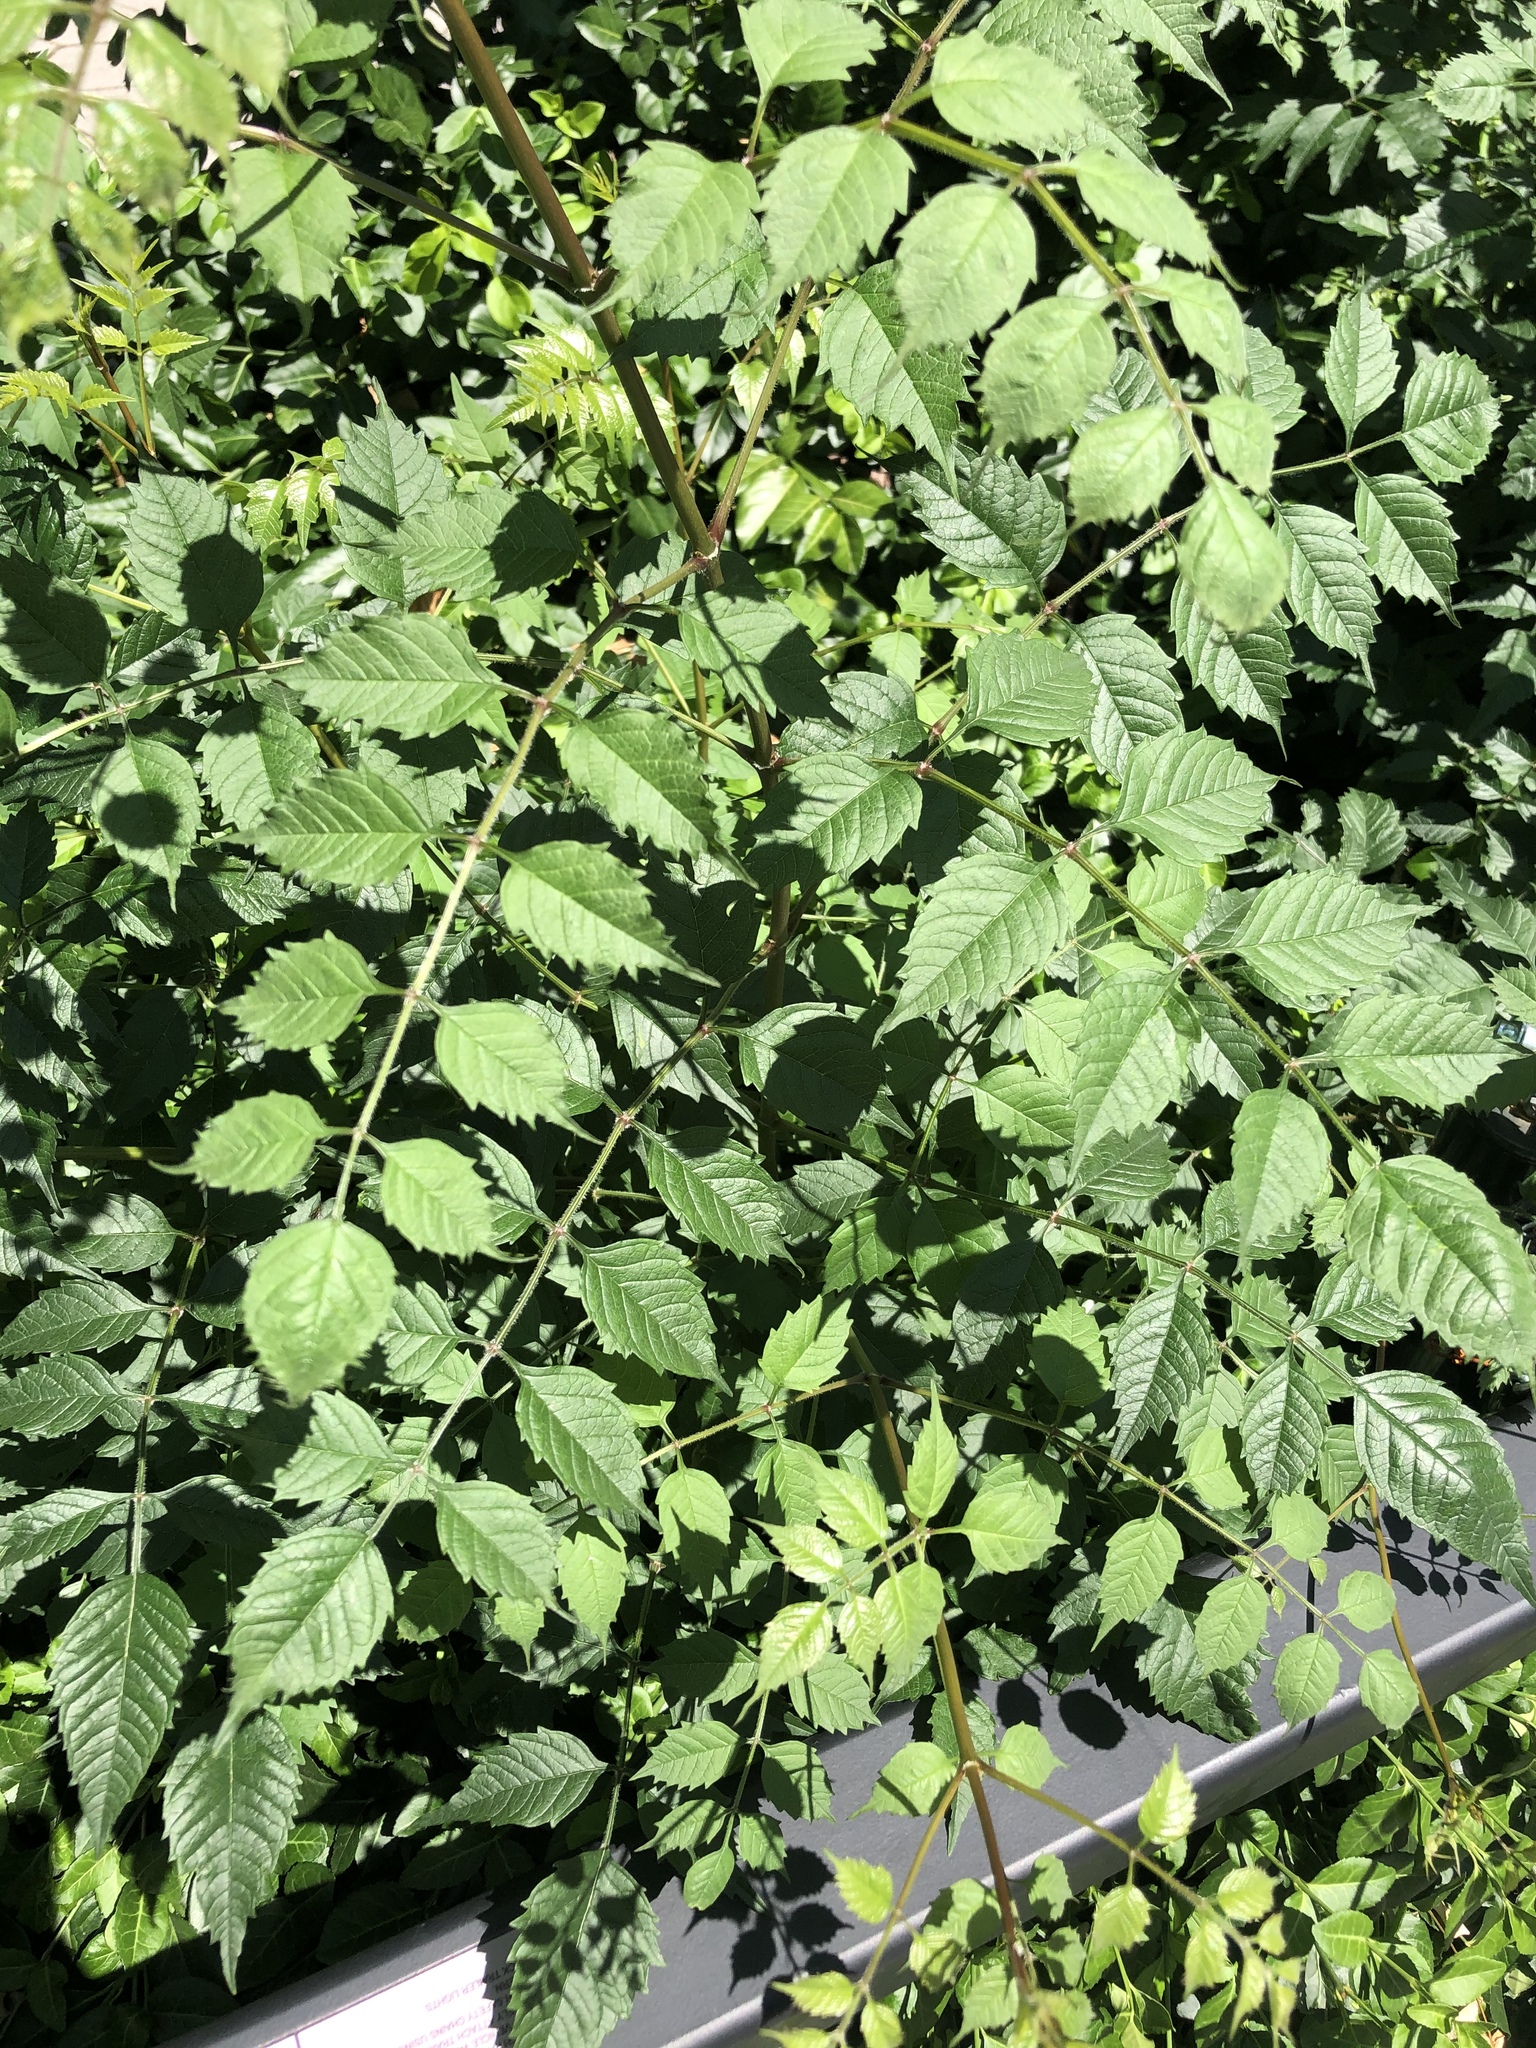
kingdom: Plantae
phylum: Tracheophyta
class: Magnoliopsida
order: Lamiales
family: Bignoniaceae
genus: Campsis
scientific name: Campsis radicans
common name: Trumpet-creeper
